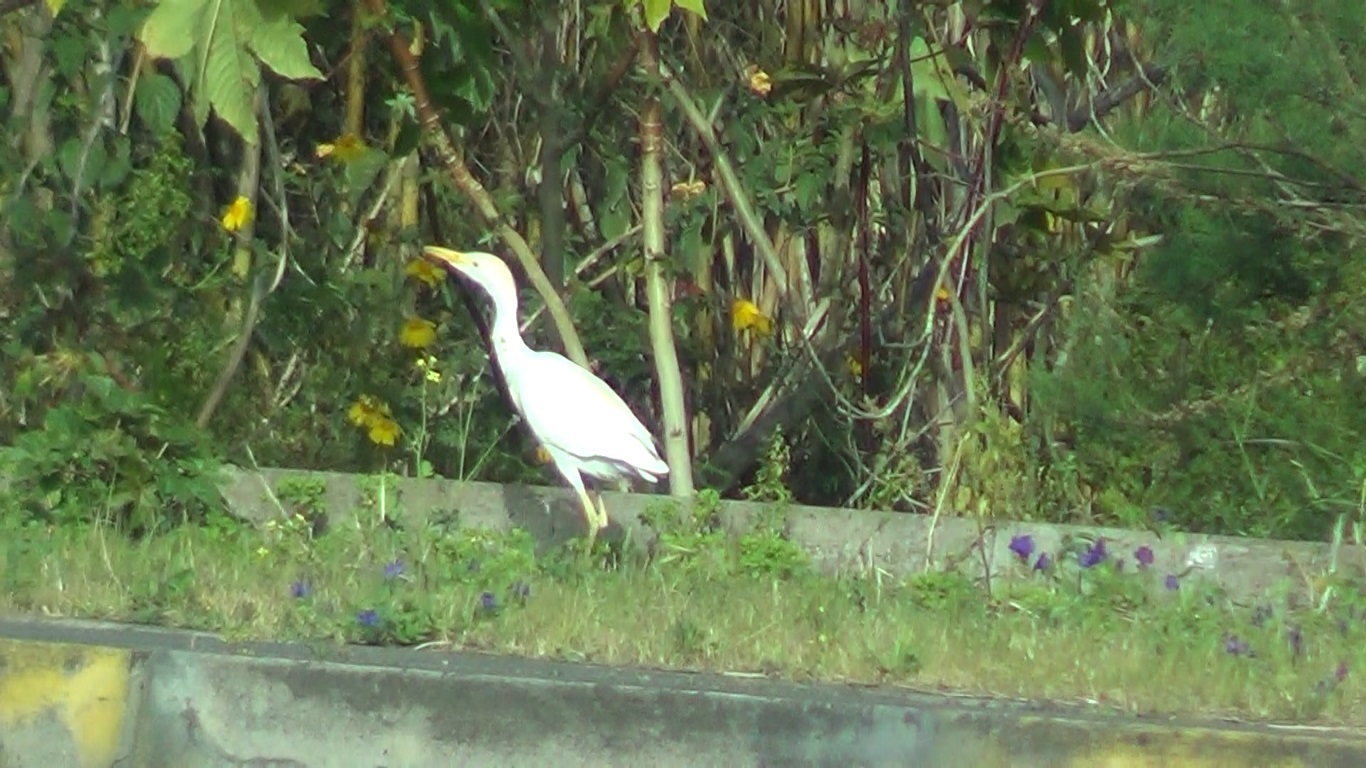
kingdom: Animalia
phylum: Chordata
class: Aves
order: Pelecaniformes
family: Ardeidae
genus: Bubulcus
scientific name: Bubulcus ibis
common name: Cattle egret
